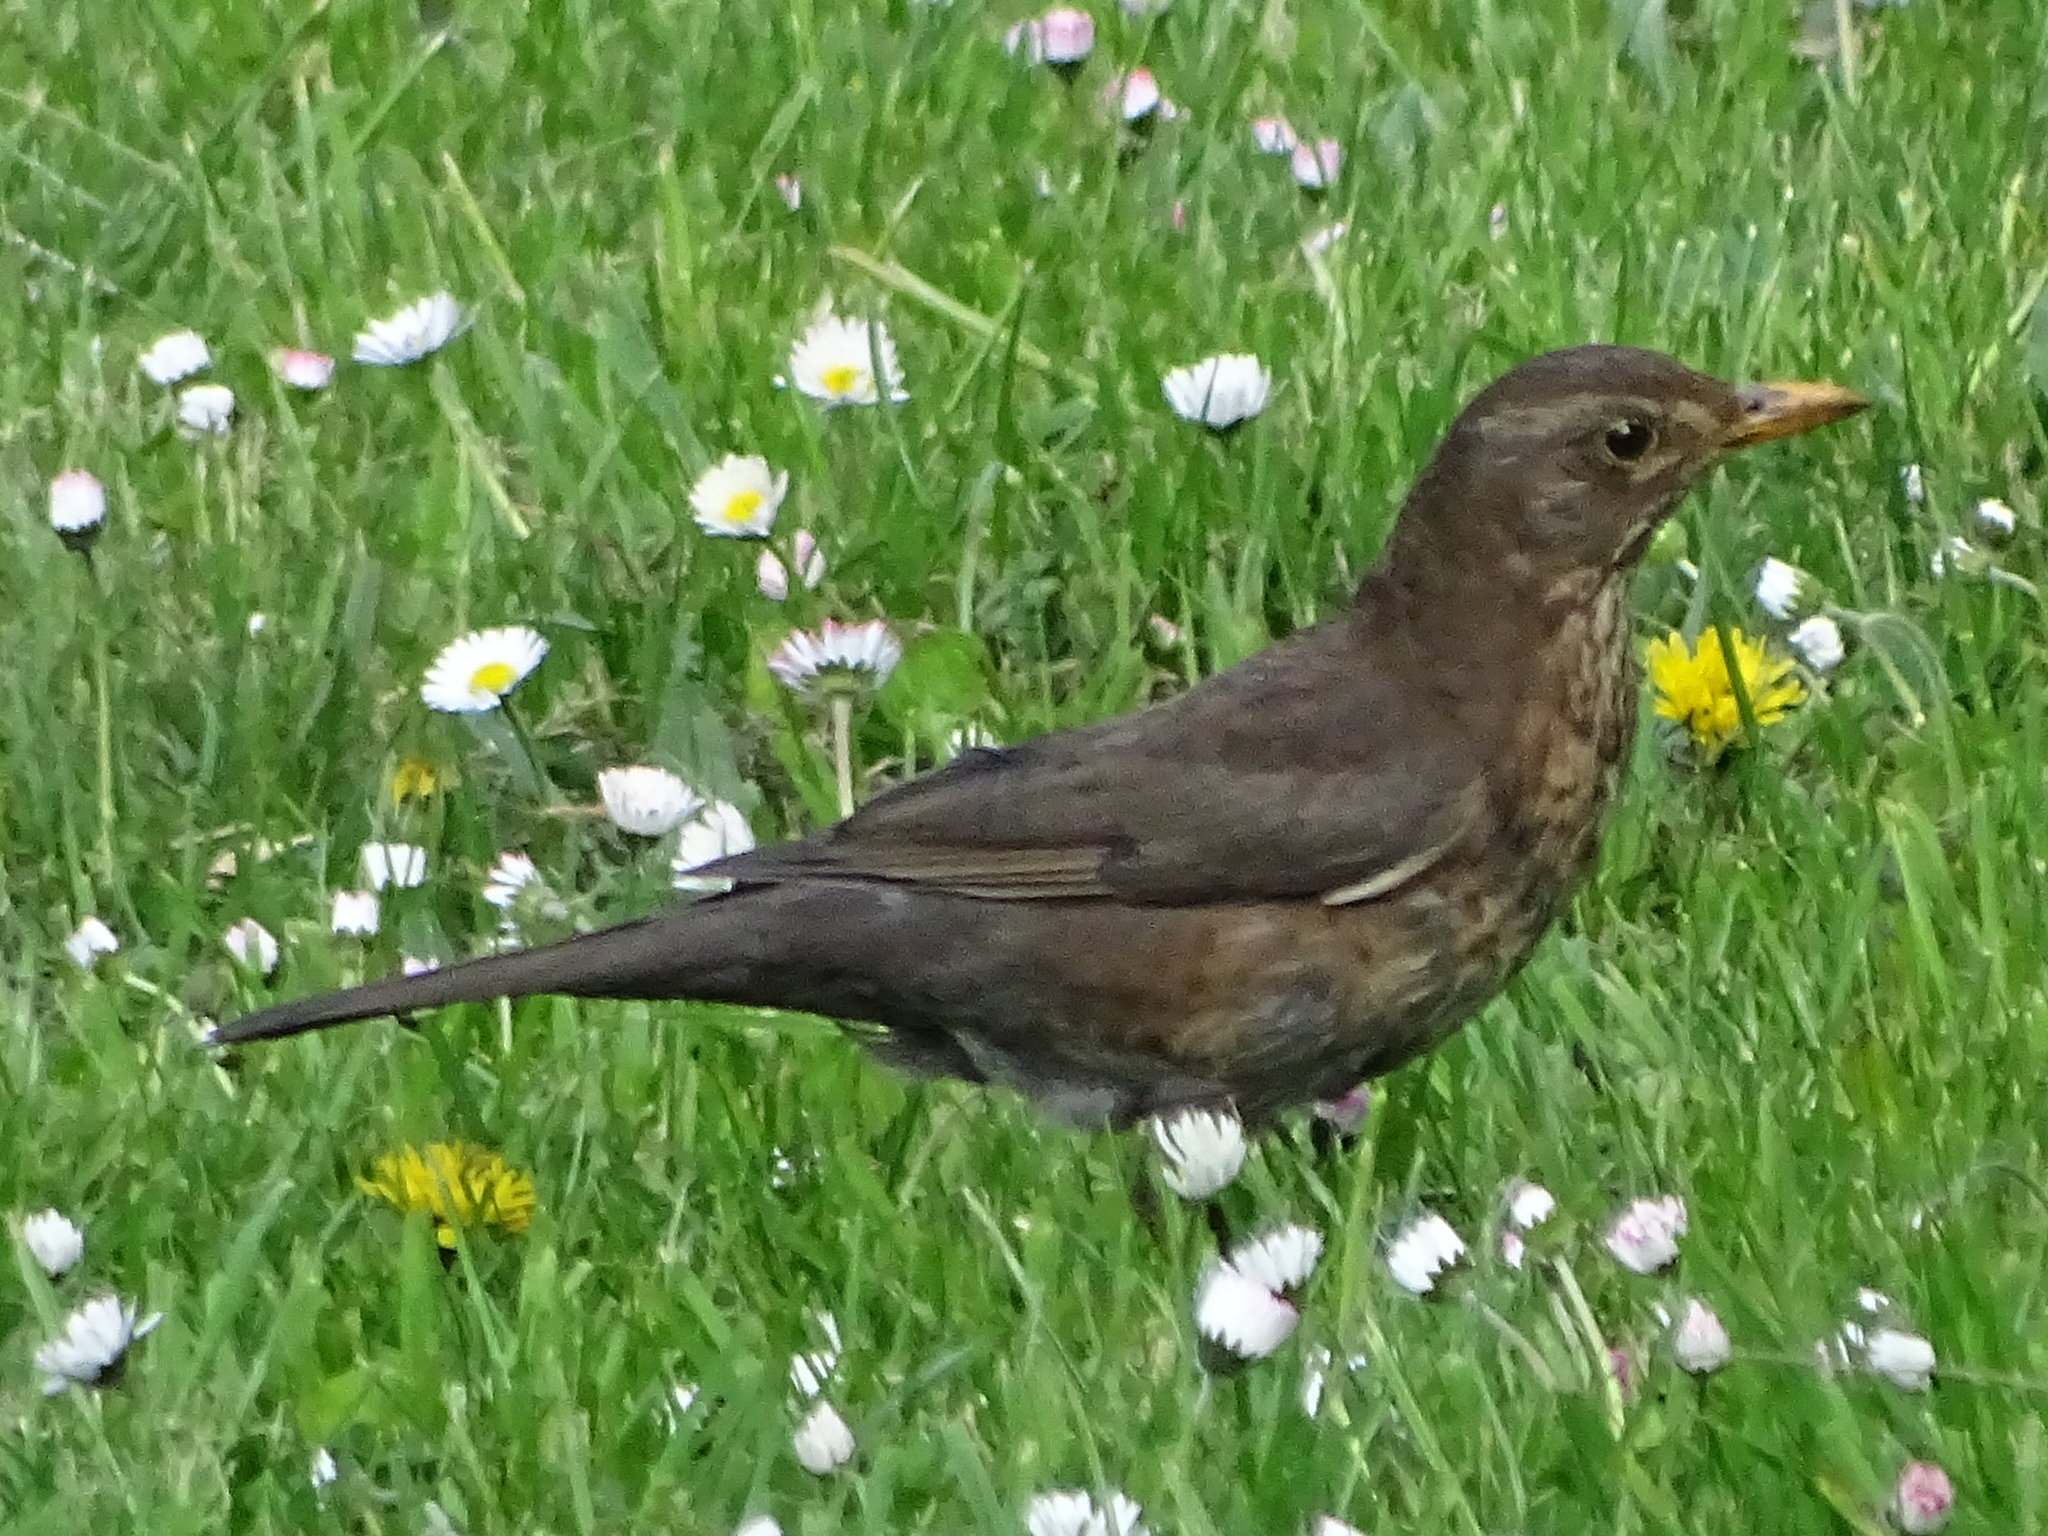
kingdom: Animalia
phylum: Chordata
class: Aves
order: Passeriformes
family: Turdidae
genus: Turdus
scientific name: Turdus merula
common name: Common blackbird
